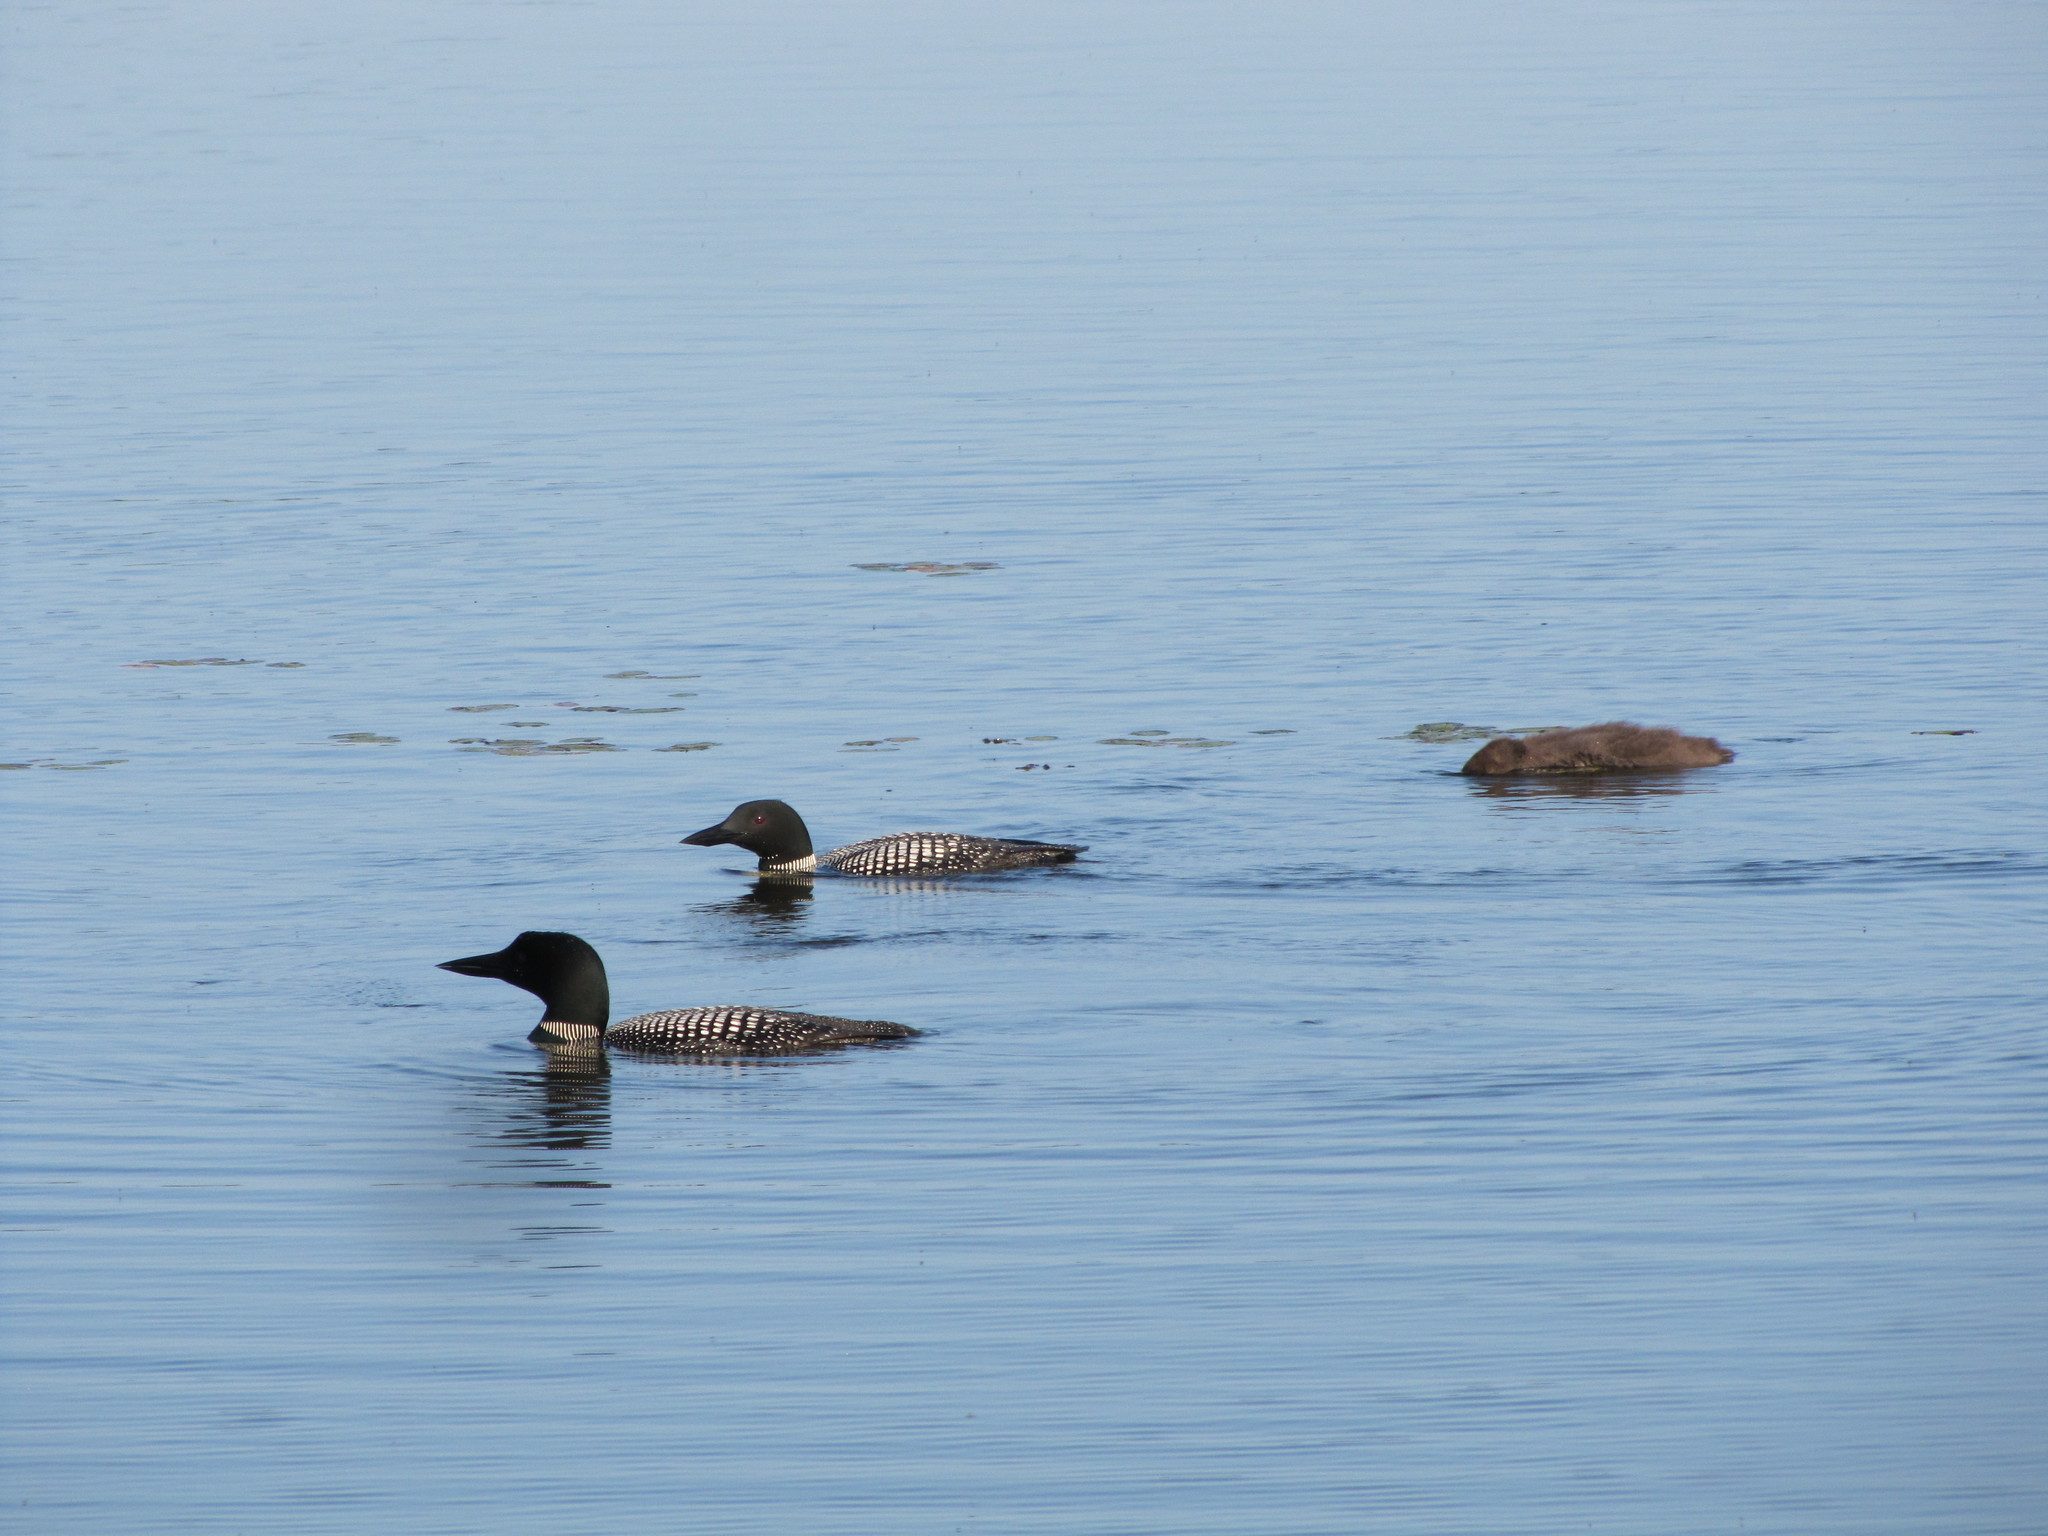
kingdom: Animalia
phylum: Chordata
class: Aves
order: Gaviiformes
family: Gaviidae
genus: Gavia
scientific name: Gavia immer
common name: Common loon
